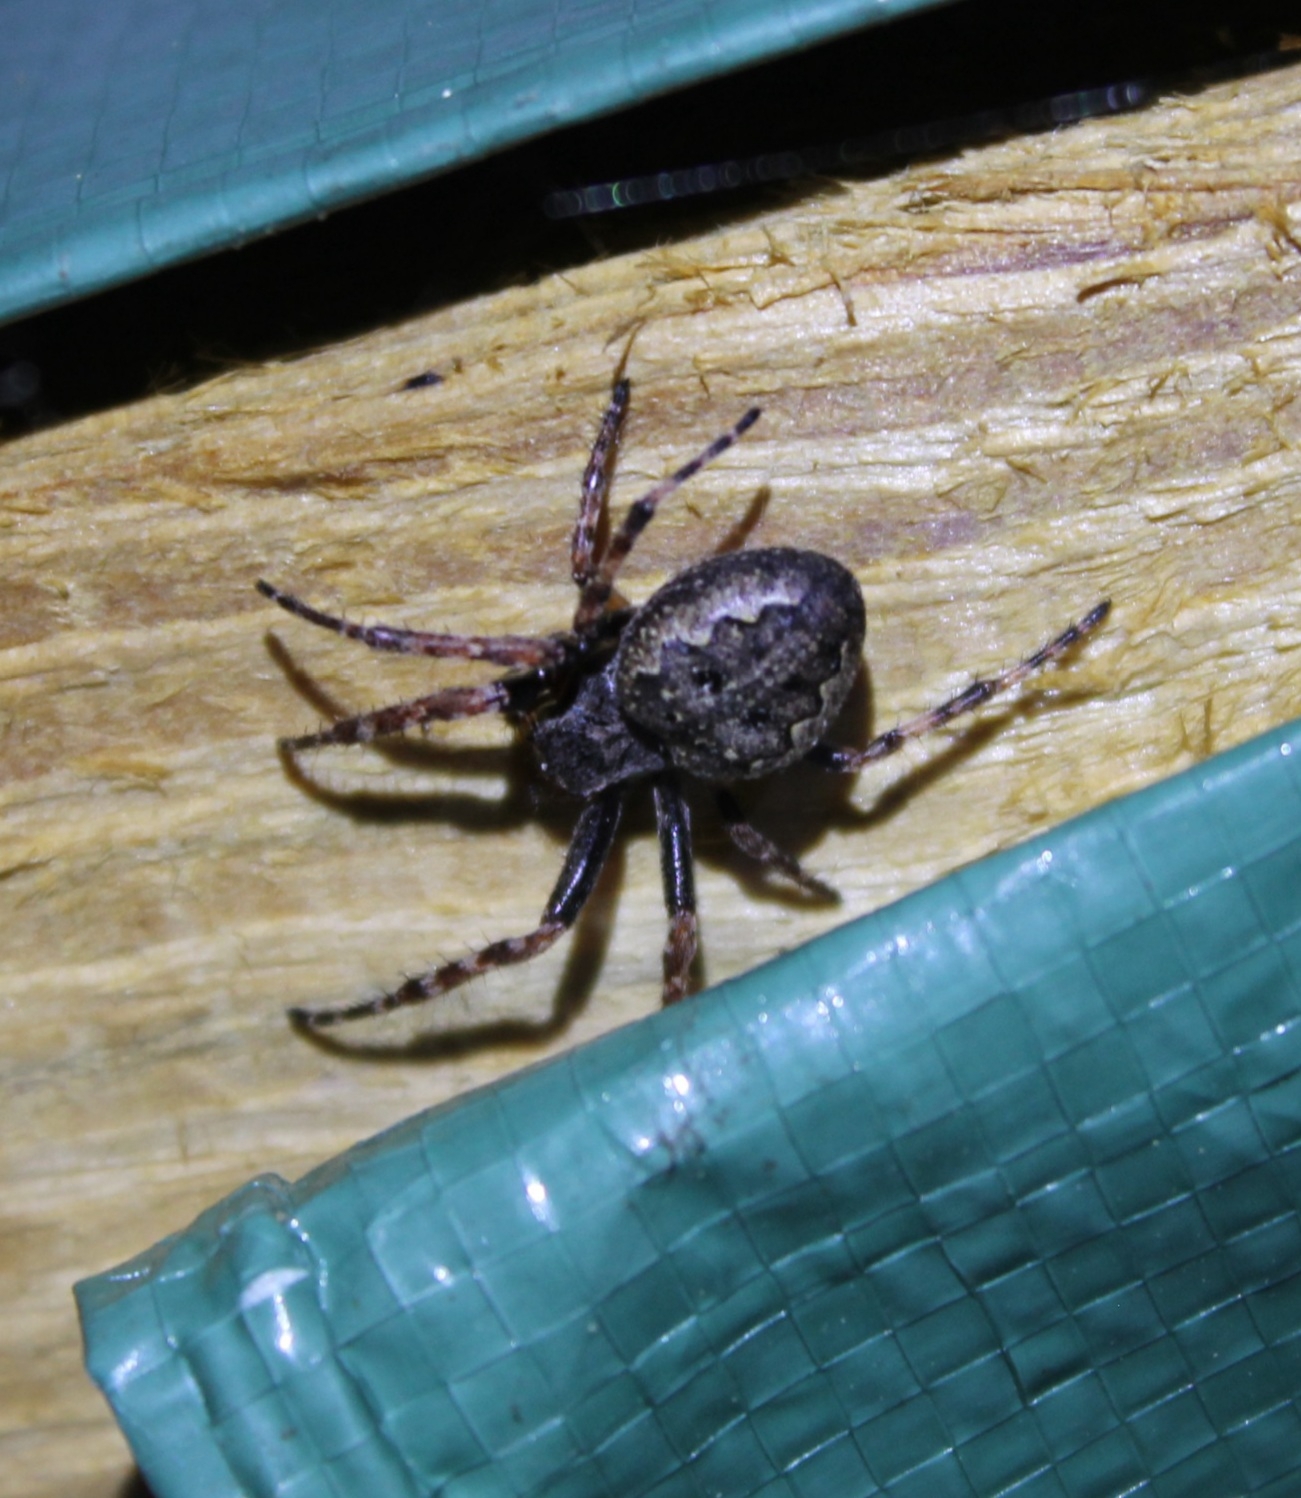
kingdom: Animalia
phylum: Arthropoda
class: Arachnida
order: Araneae
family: Araneidae
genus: Nuctenea
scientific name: Nuctenea umbratica
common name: Toad spider
